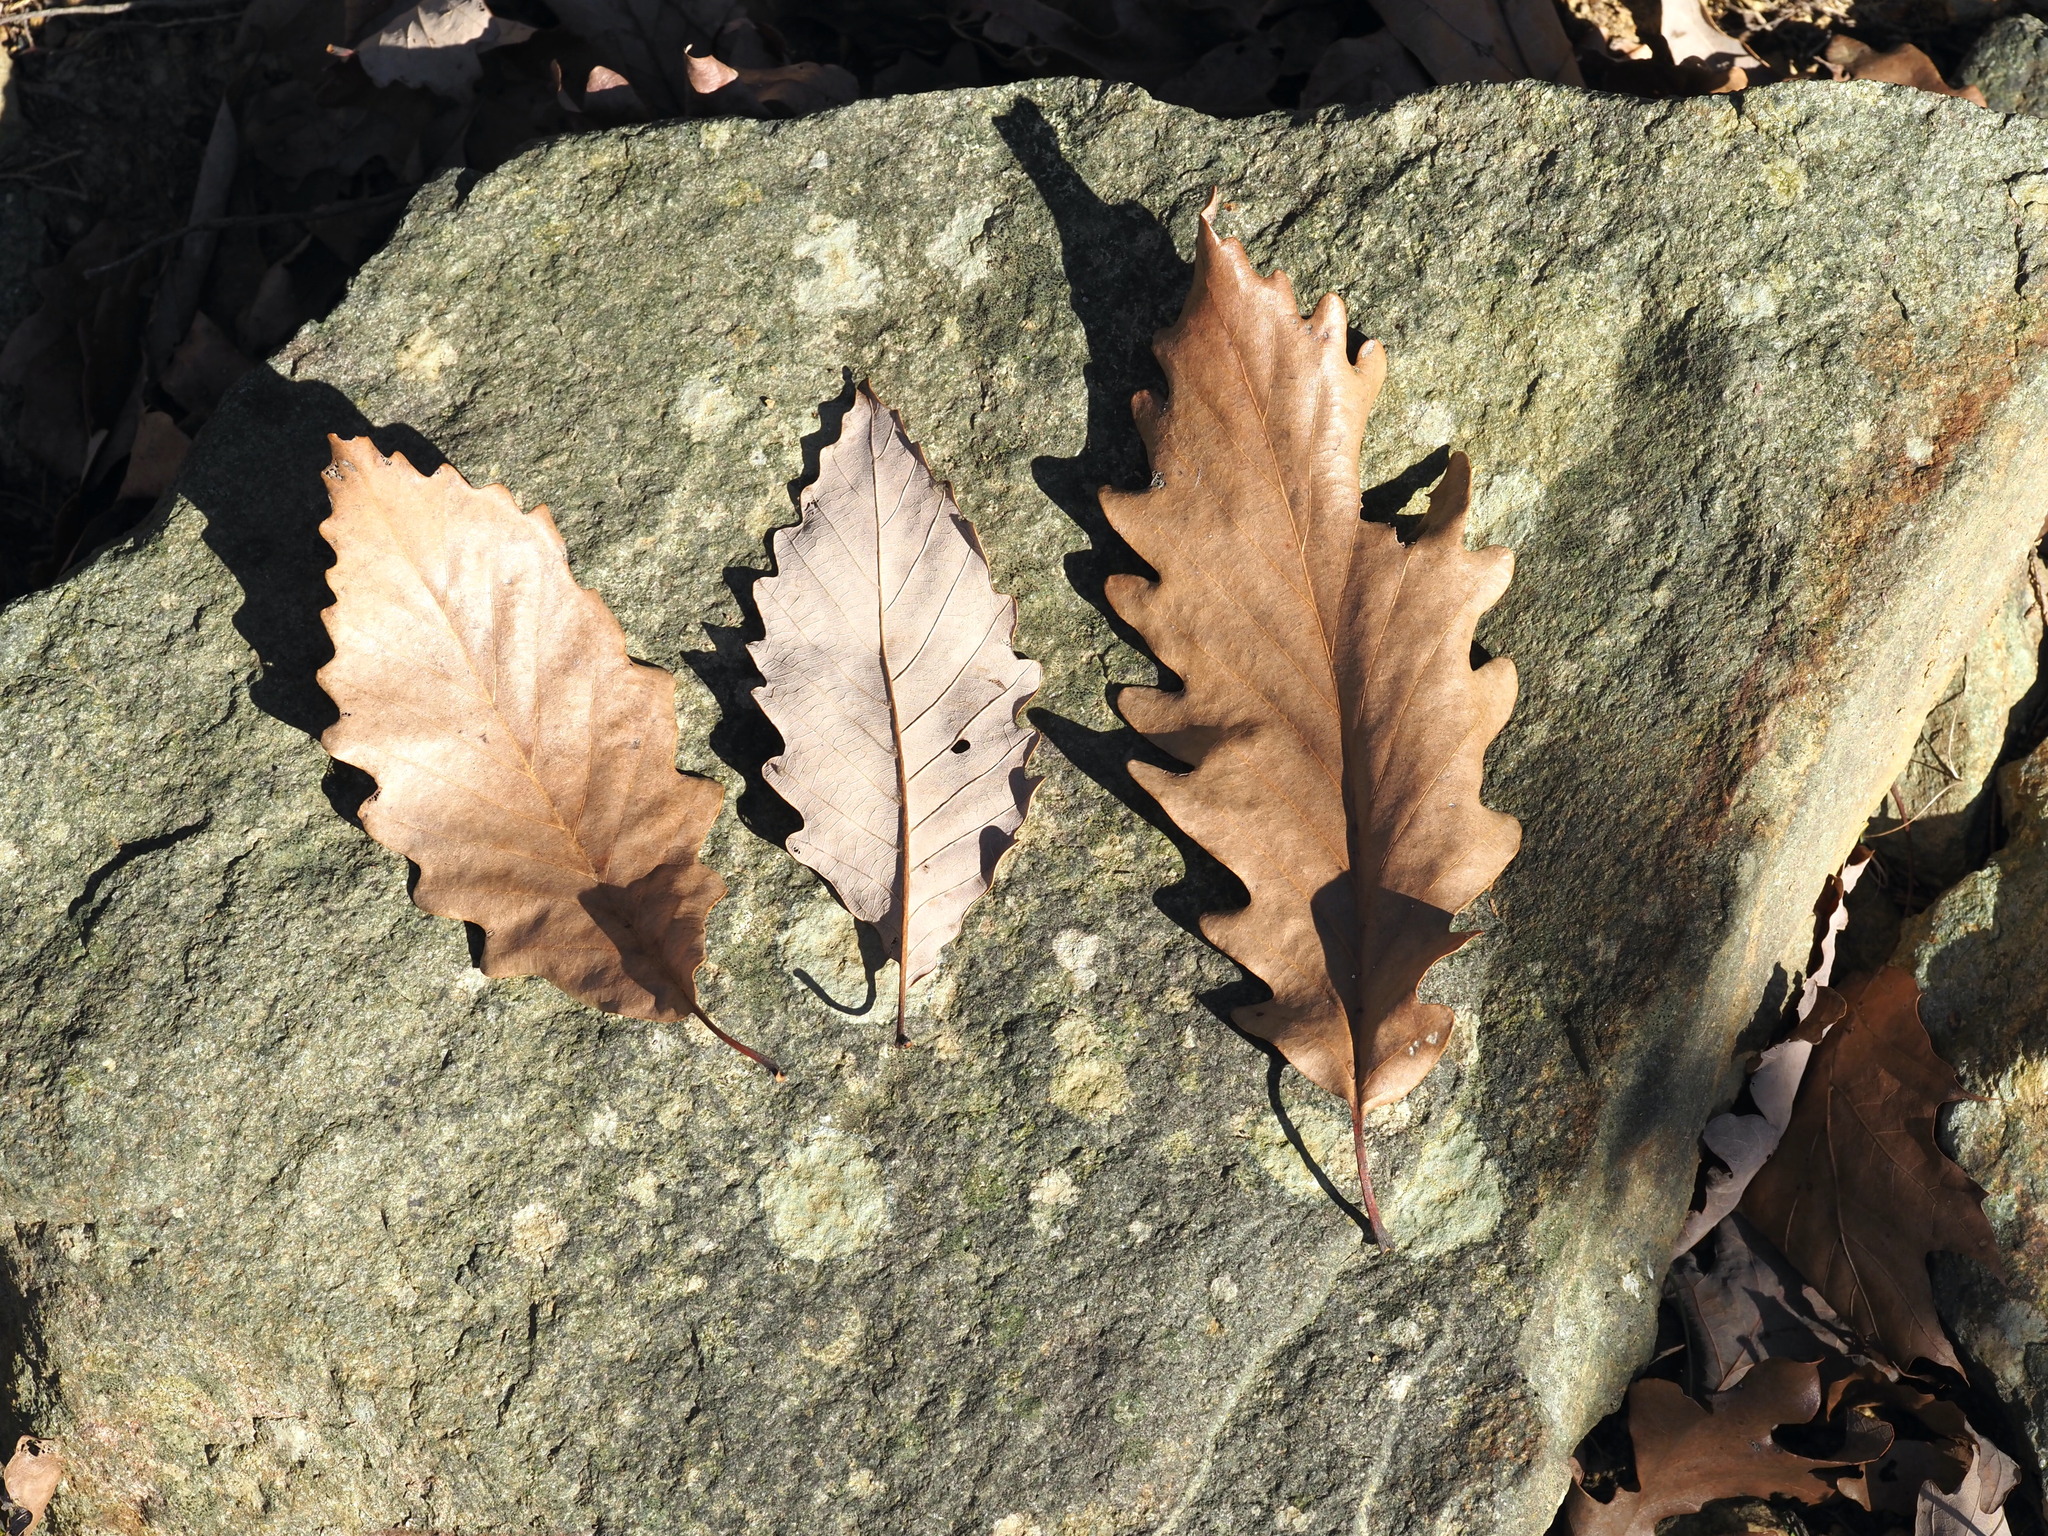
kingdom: Plantae
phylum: Tracheophyta
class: Magnoliopsida
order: Fagales
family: Fagaceae
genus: Quercus
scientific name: Quercus montana
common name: Chestnut oak
